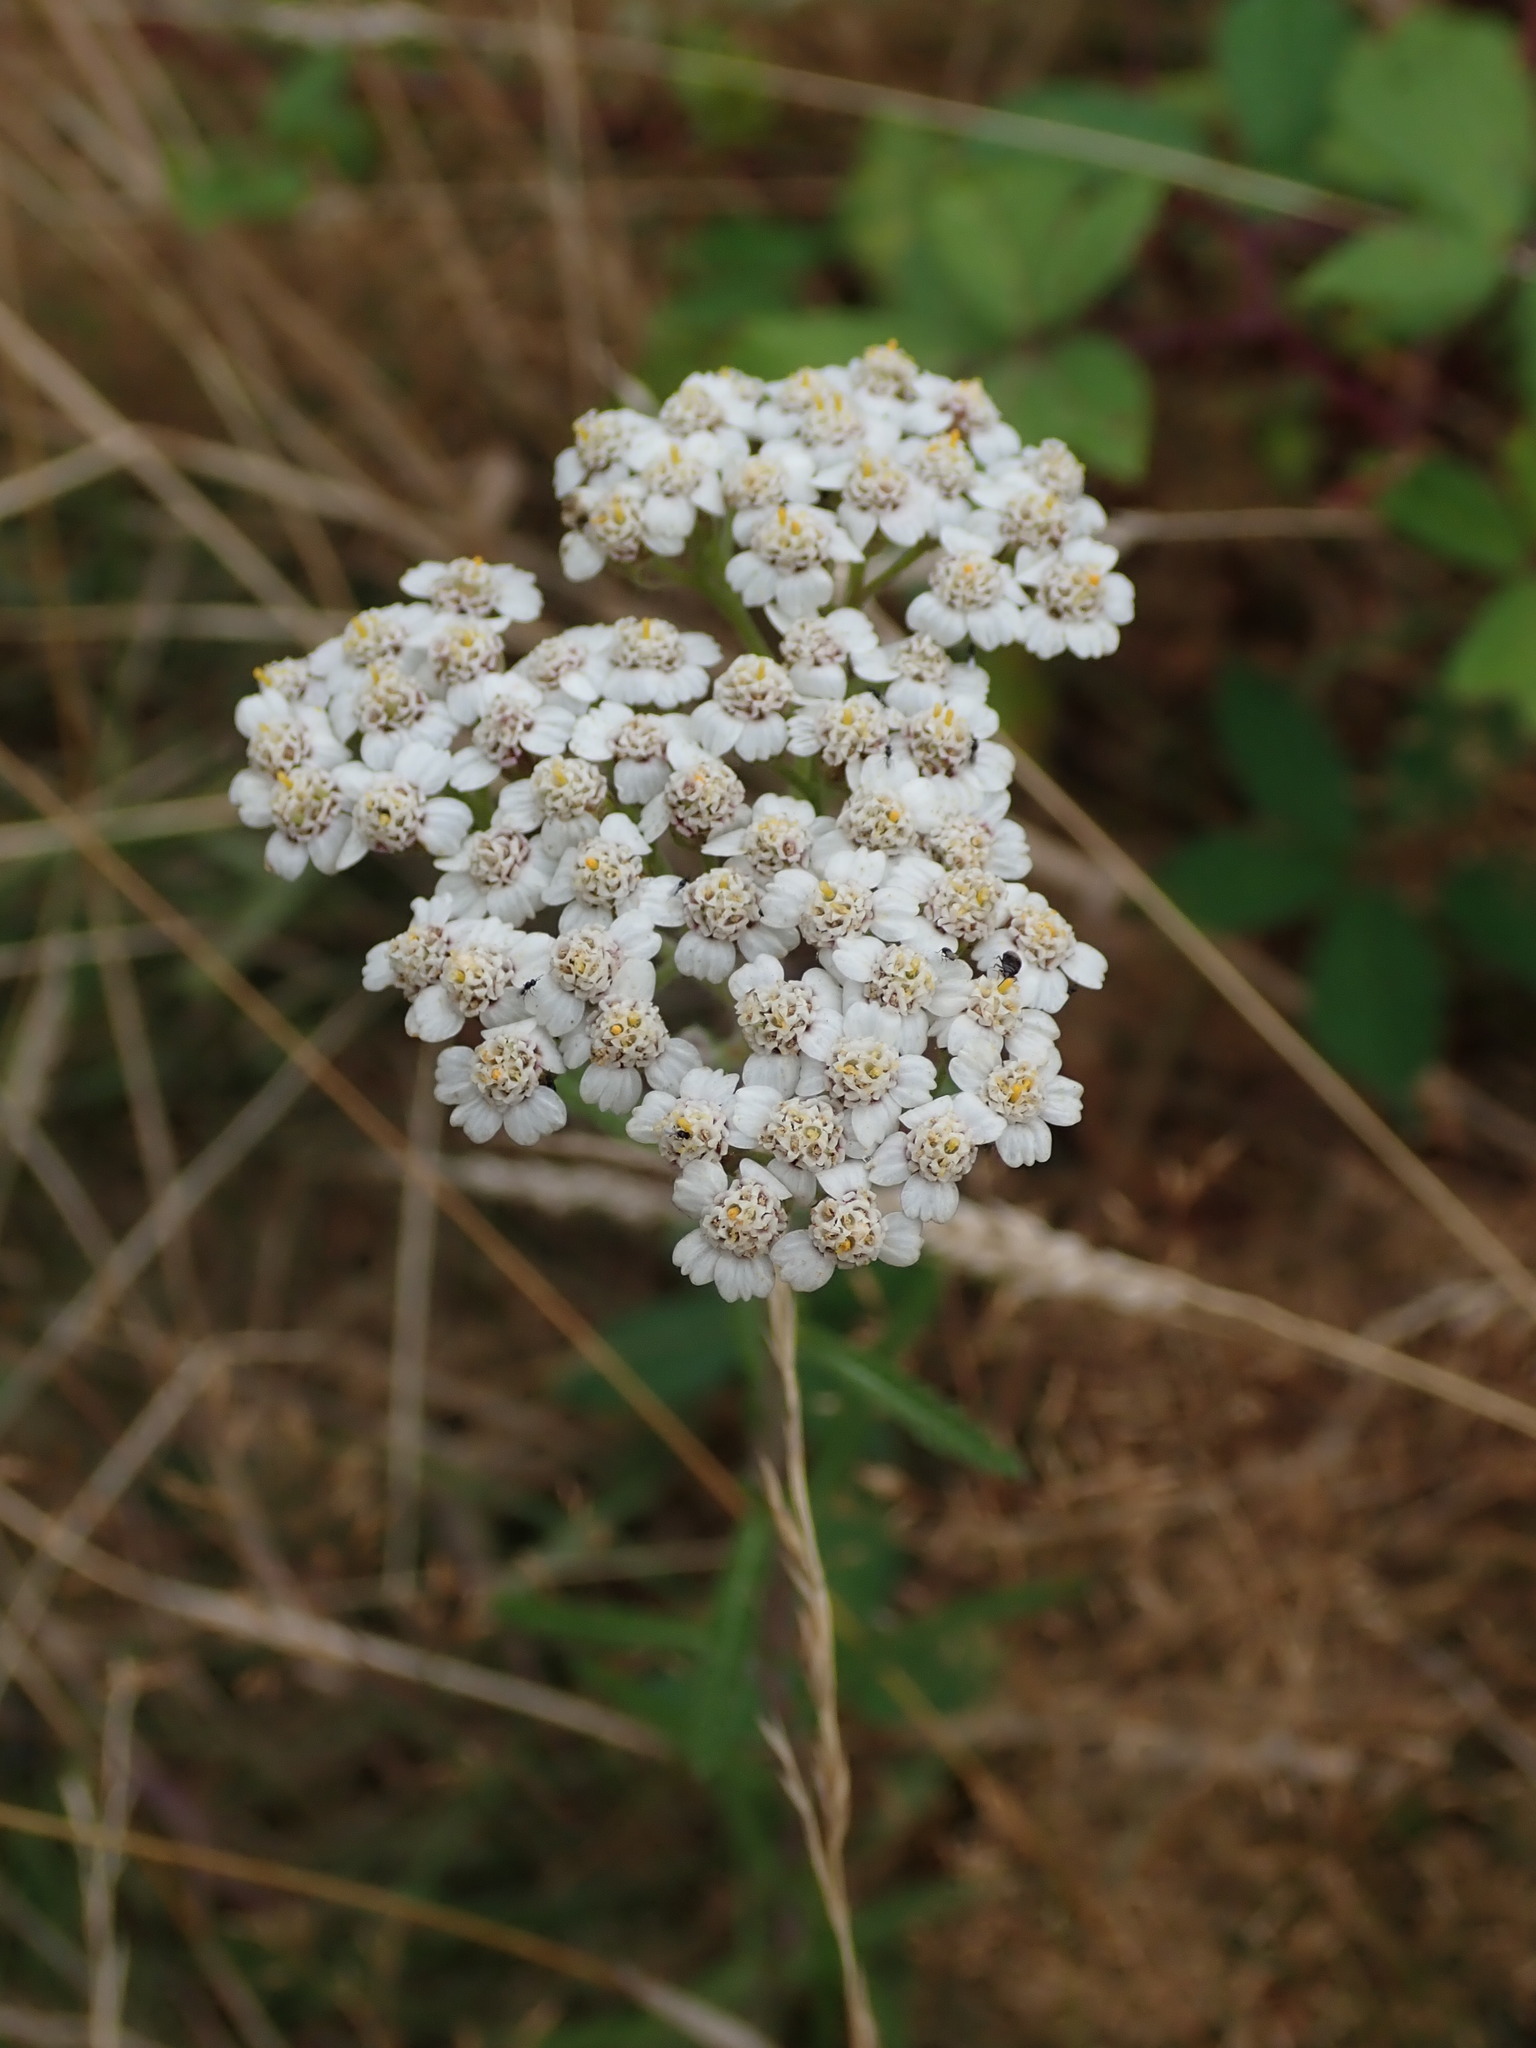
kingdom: Plantae
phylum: Tracheophyta
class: Magnoliopsida
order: Asterales
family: Asteraceae
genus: Achillea
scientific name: Achillea millefolium
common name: Yarrow
